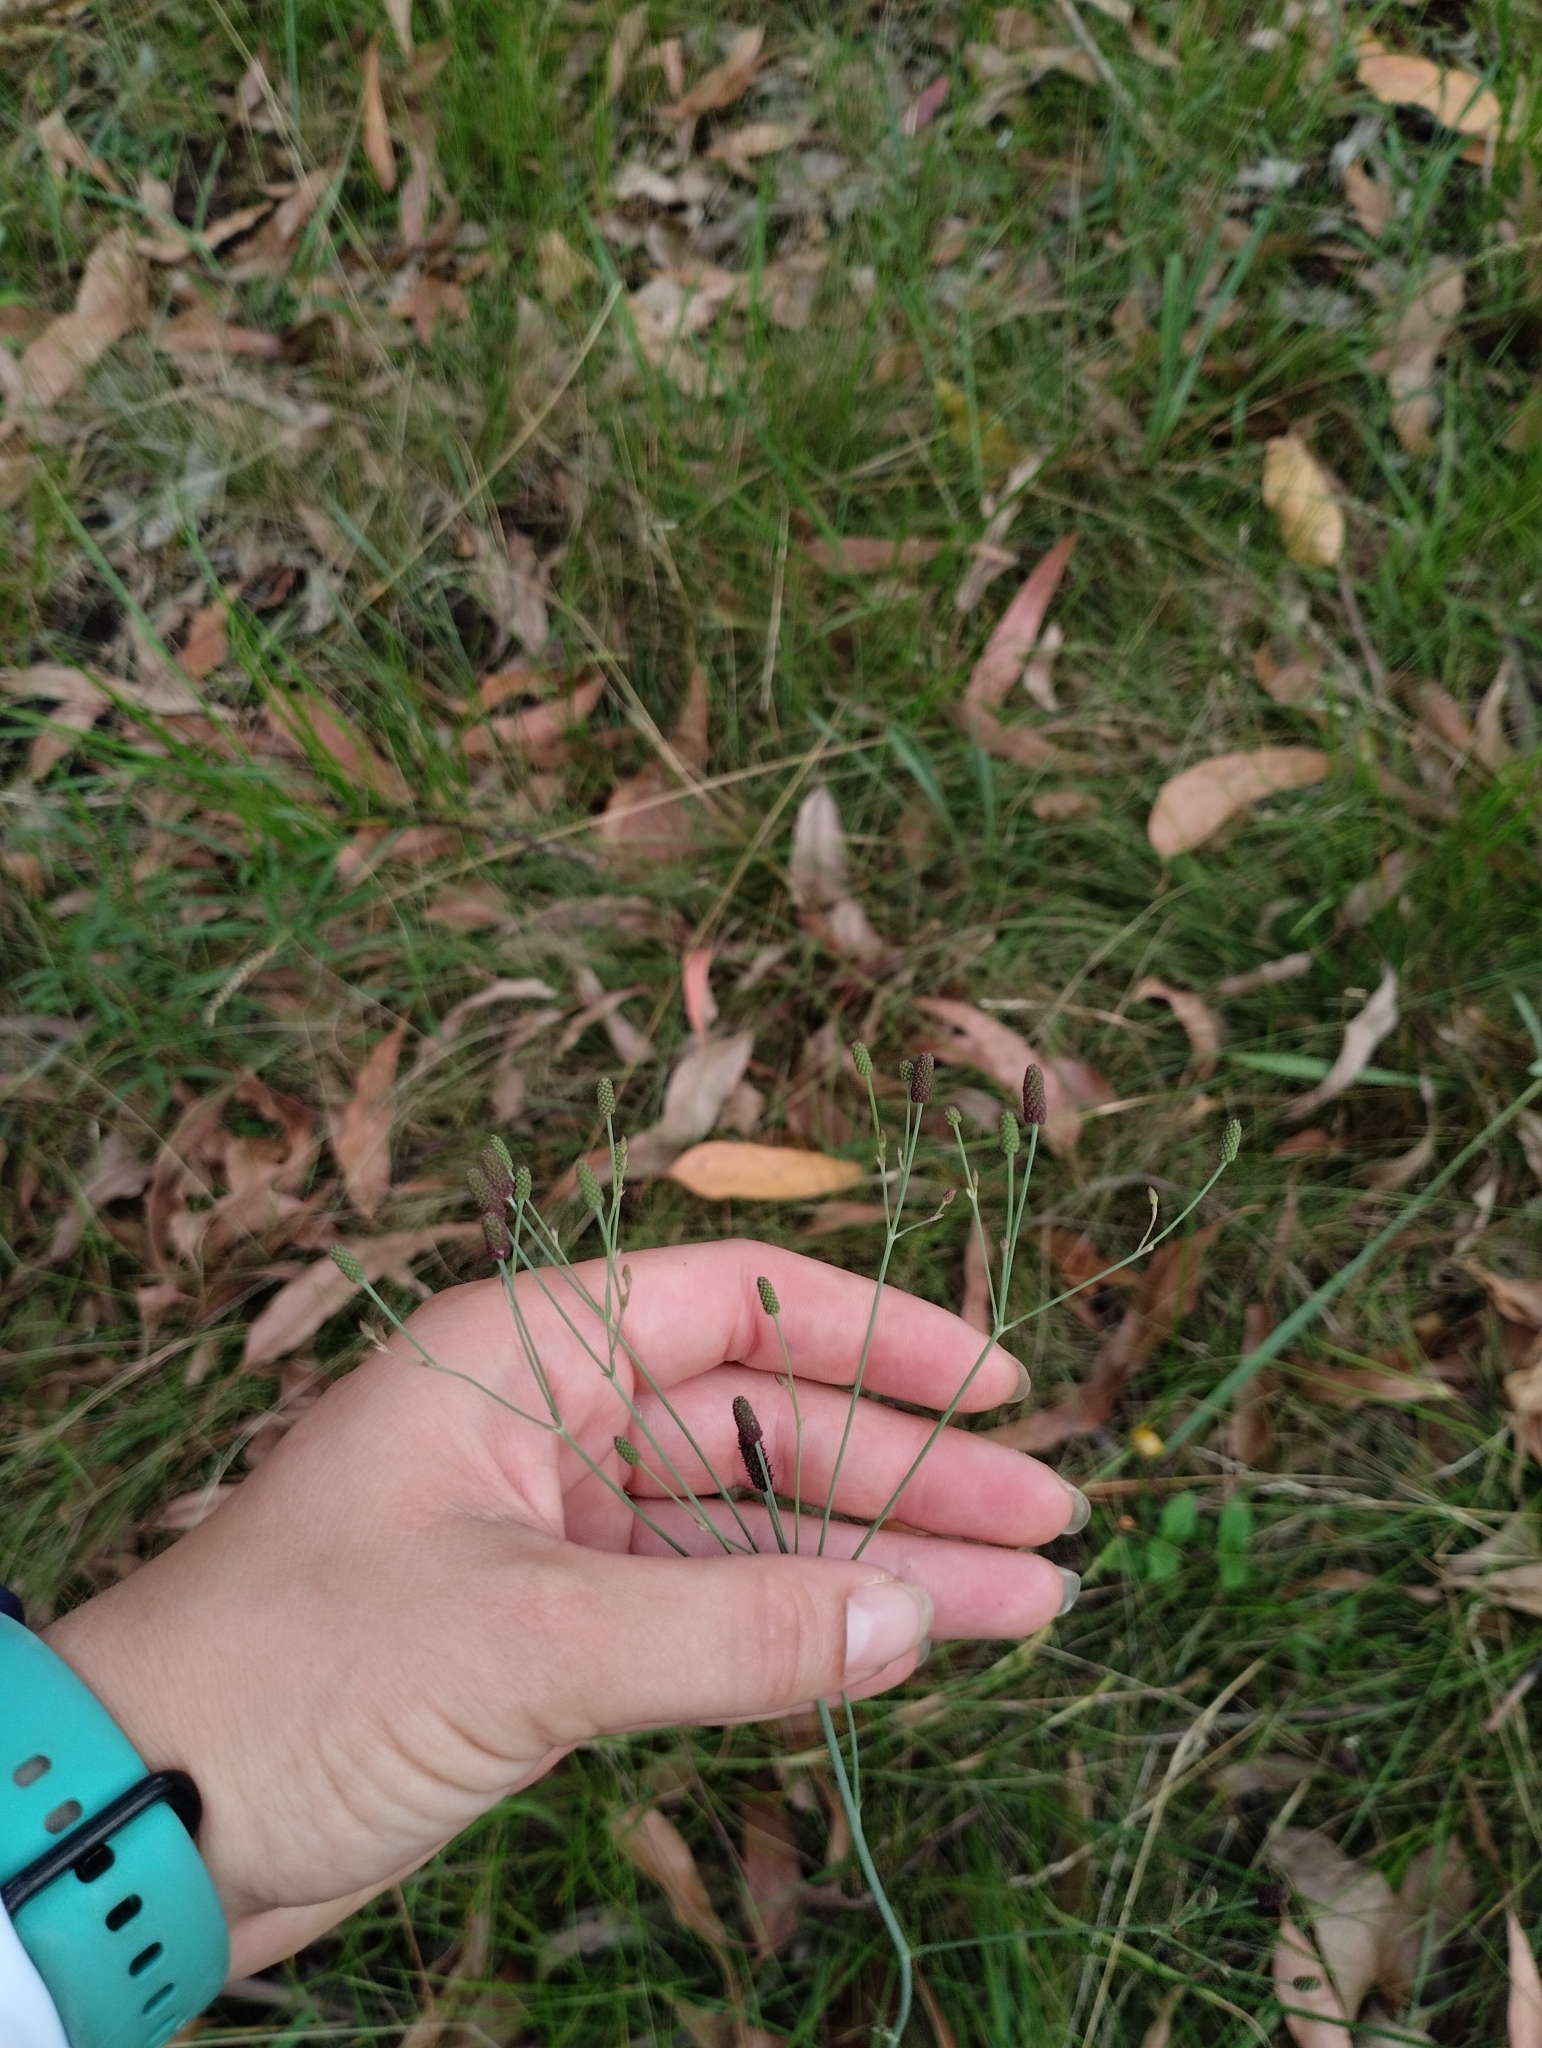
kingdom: Plantae
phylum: Tracheophyta
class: Magnoliopsida
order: Apiales
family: Apiaceae
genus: Eryngium
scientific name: Eryngium ebracteatum
